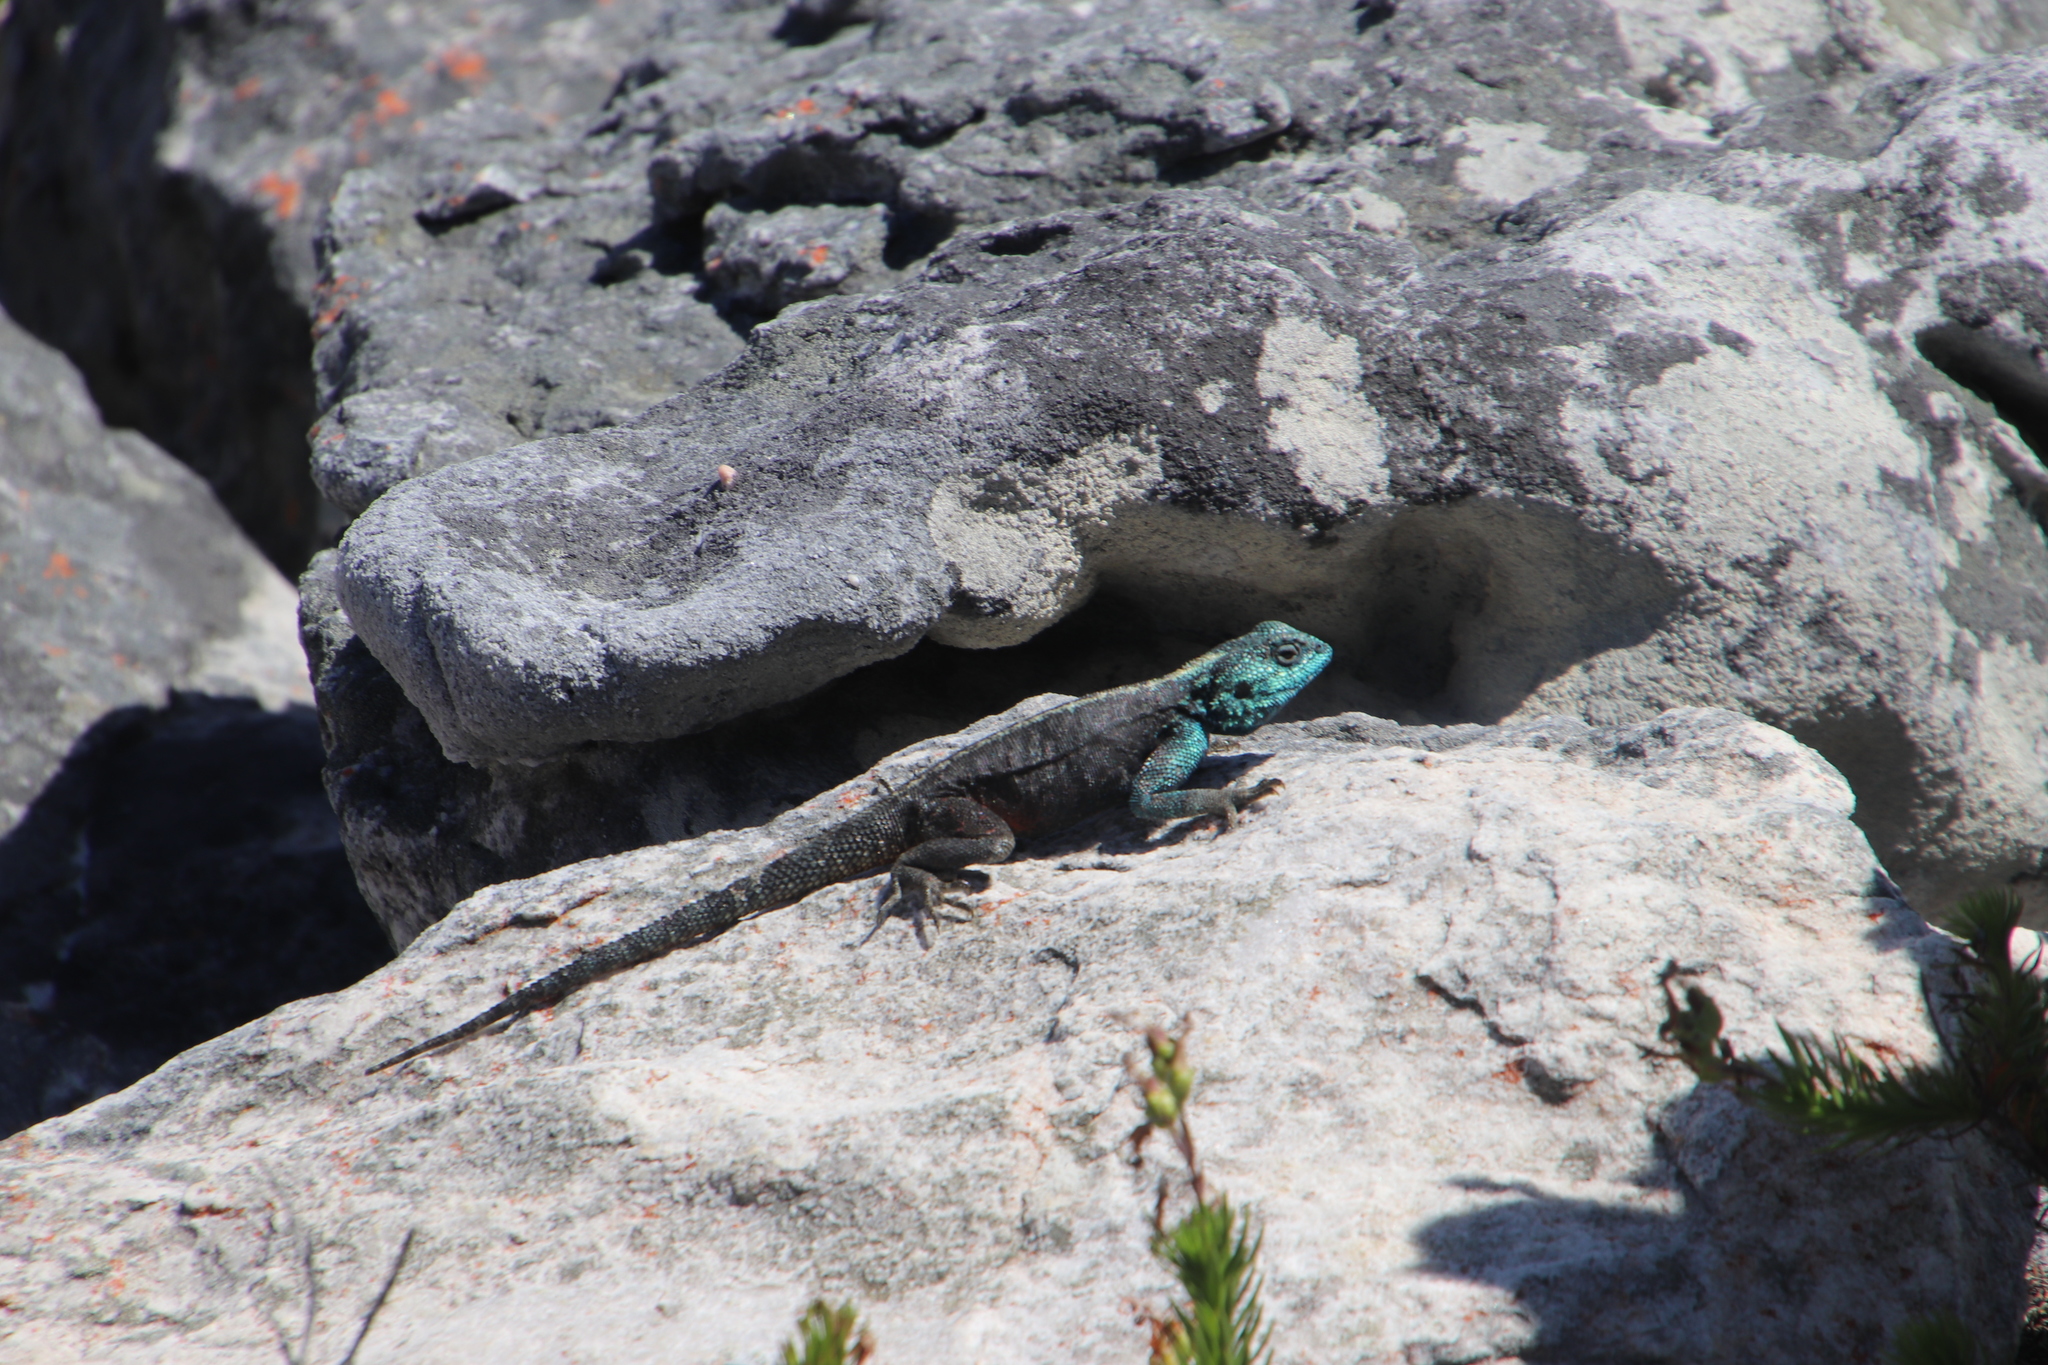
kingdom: Animalia
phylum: Chordata
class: Squamata
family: Agamidae
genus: Agama
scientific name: Agama atra
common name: Southern african rock agama
